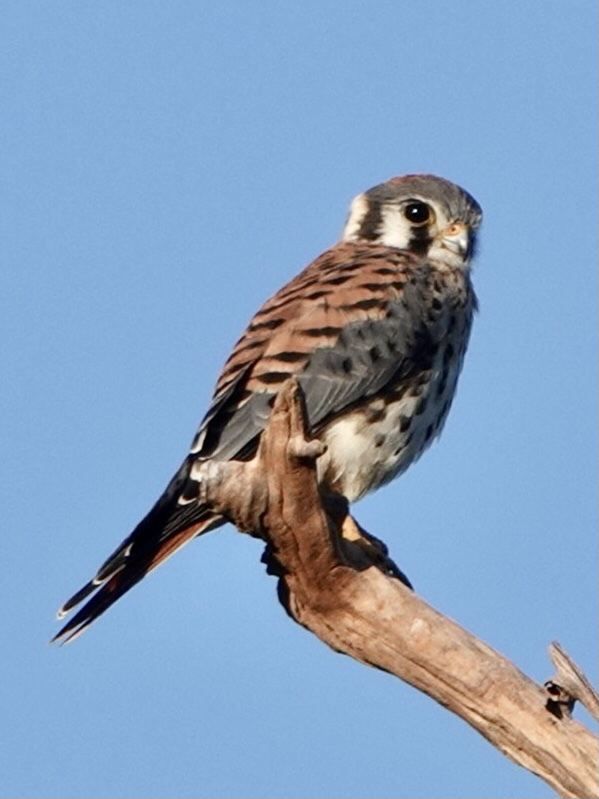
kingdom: Animalia
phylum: Chordata
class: Aves
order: Falconiformes
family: Falconidae
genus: Falco
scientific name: Falco sparverius
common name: American kestrel
